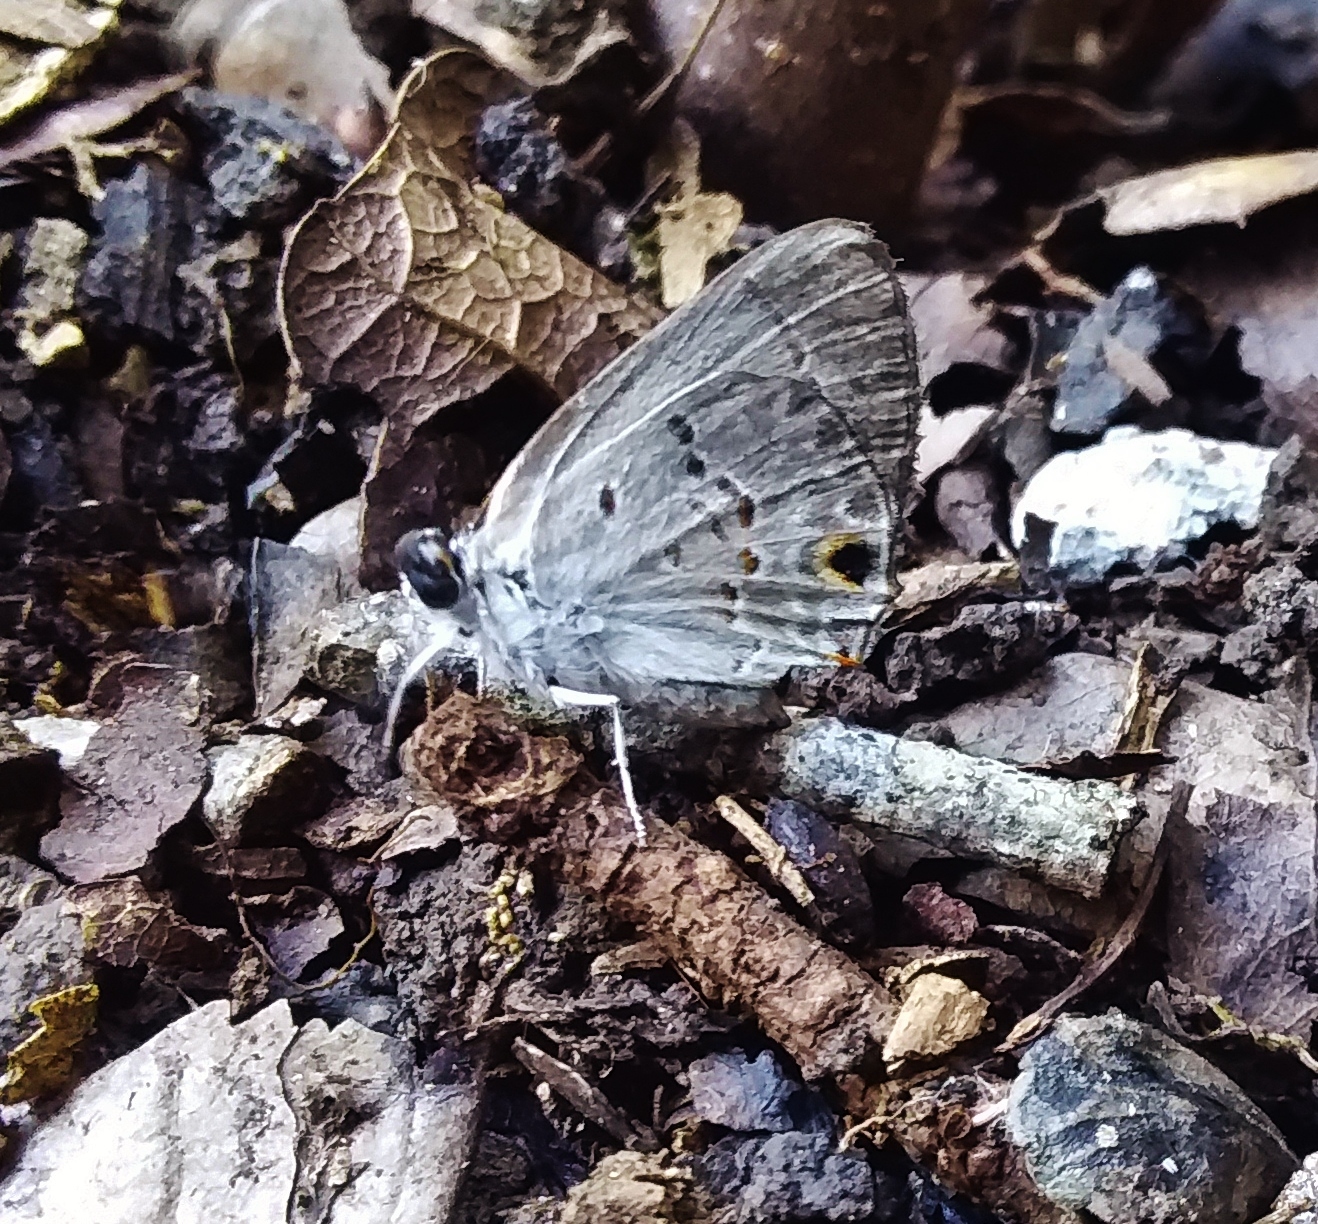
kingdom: Animalia
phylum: Arthropoda
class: Insecta
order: Lepidoptera
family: Lycaenidae
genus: Callicista
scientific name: Callicista columella
